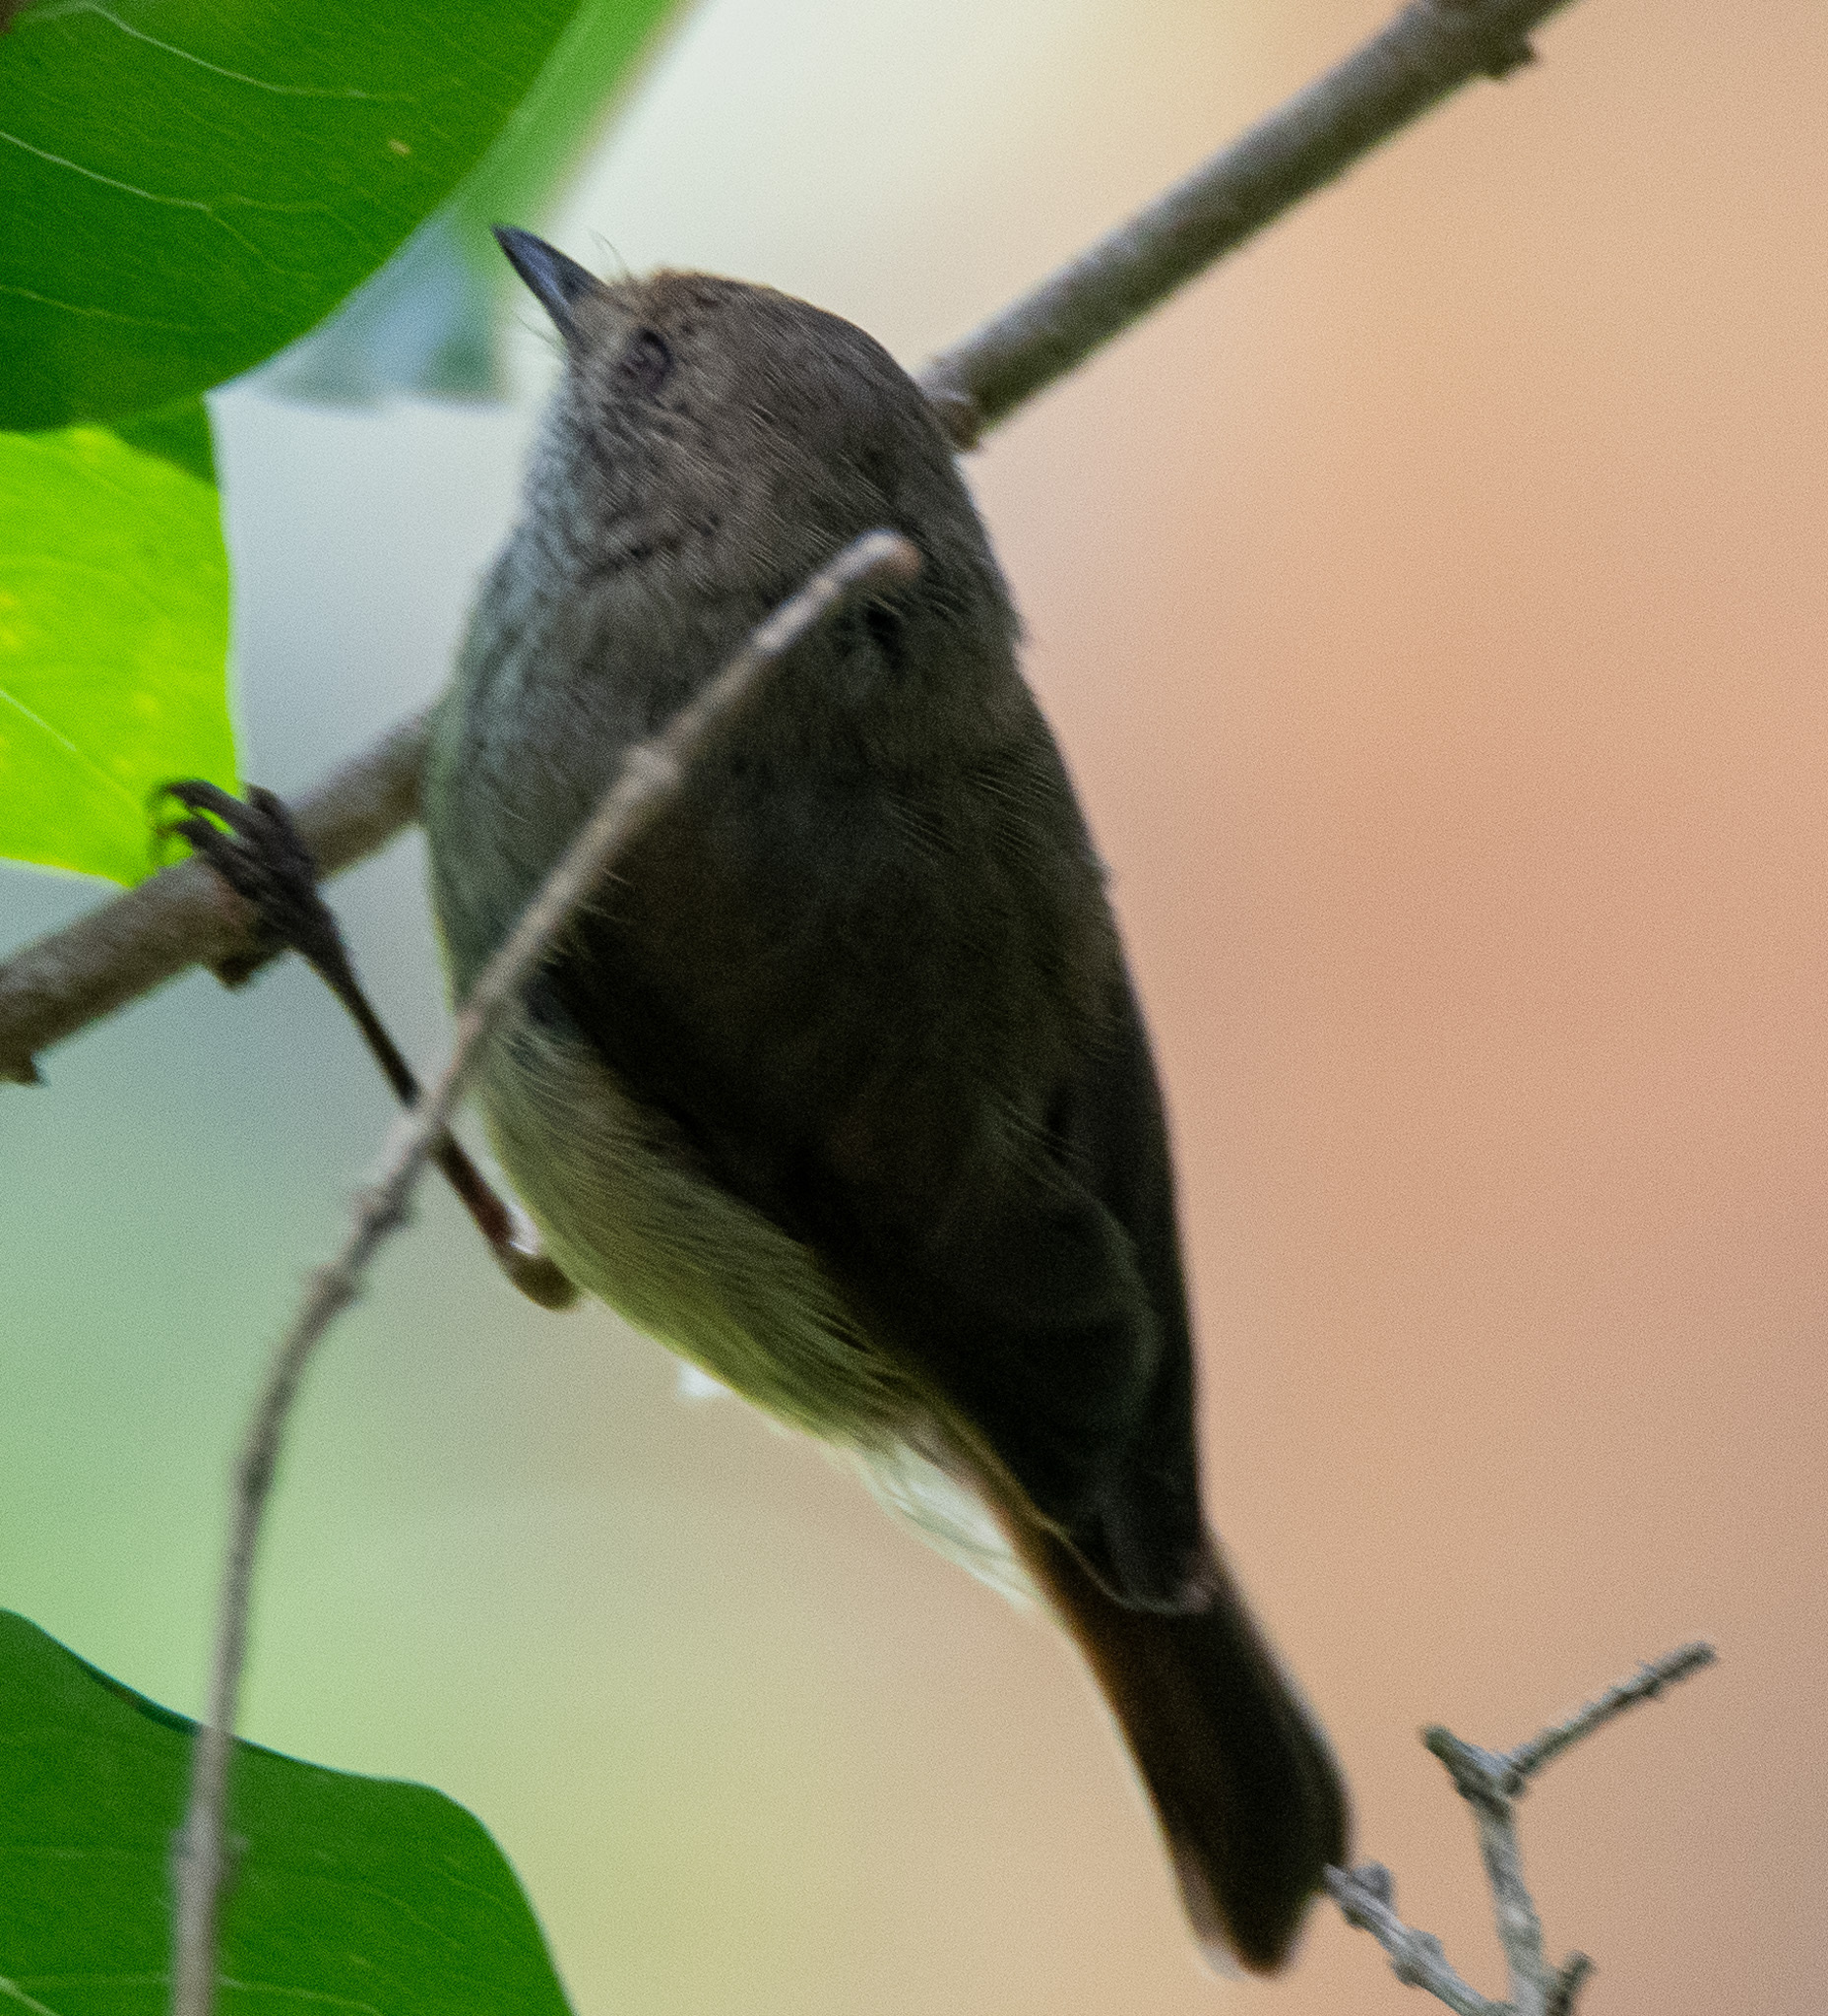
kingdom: Animalia
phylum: Chordata
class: Aves
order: Passeriformes
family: Acanthizidae
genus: Acanthiza
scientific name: Acanthiza pusilla
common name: Brown thornbill
